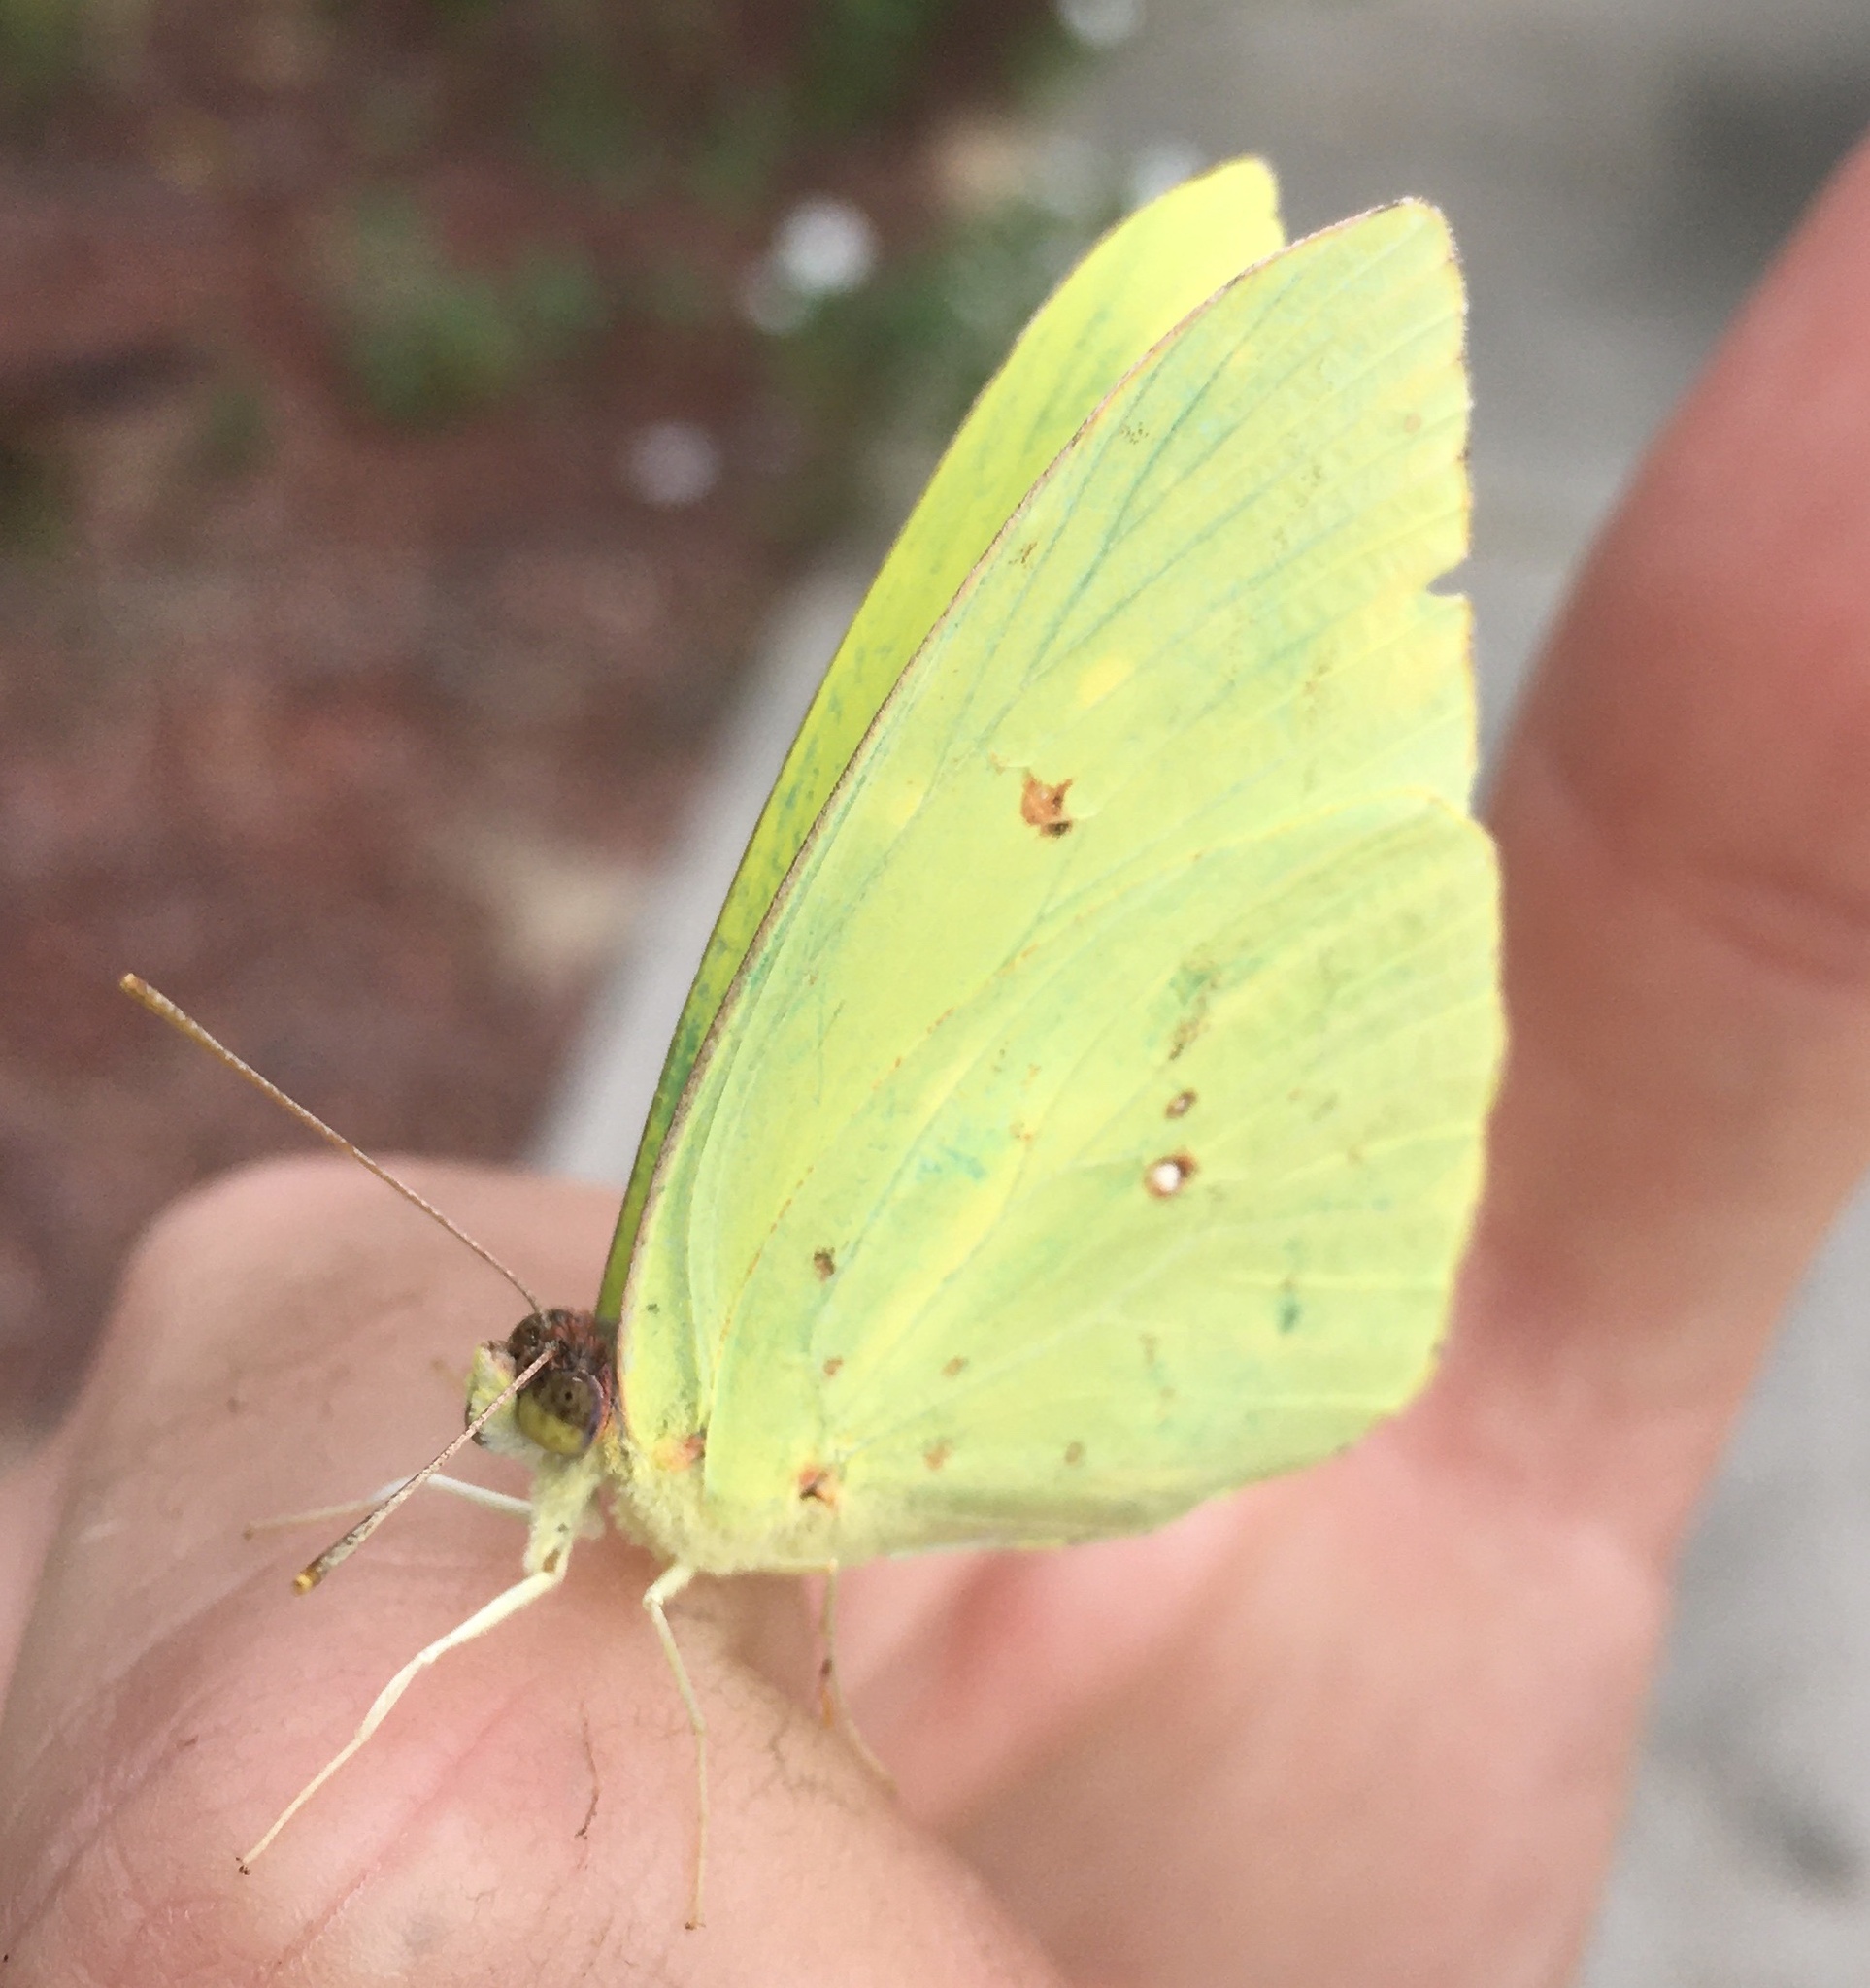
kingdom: Animalia
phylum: Arthropoda
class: Insecta
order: Lepidoptera
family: Pieridae
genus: Phoebis
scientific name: Phoebis sennae
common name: Cloudless sulphur
